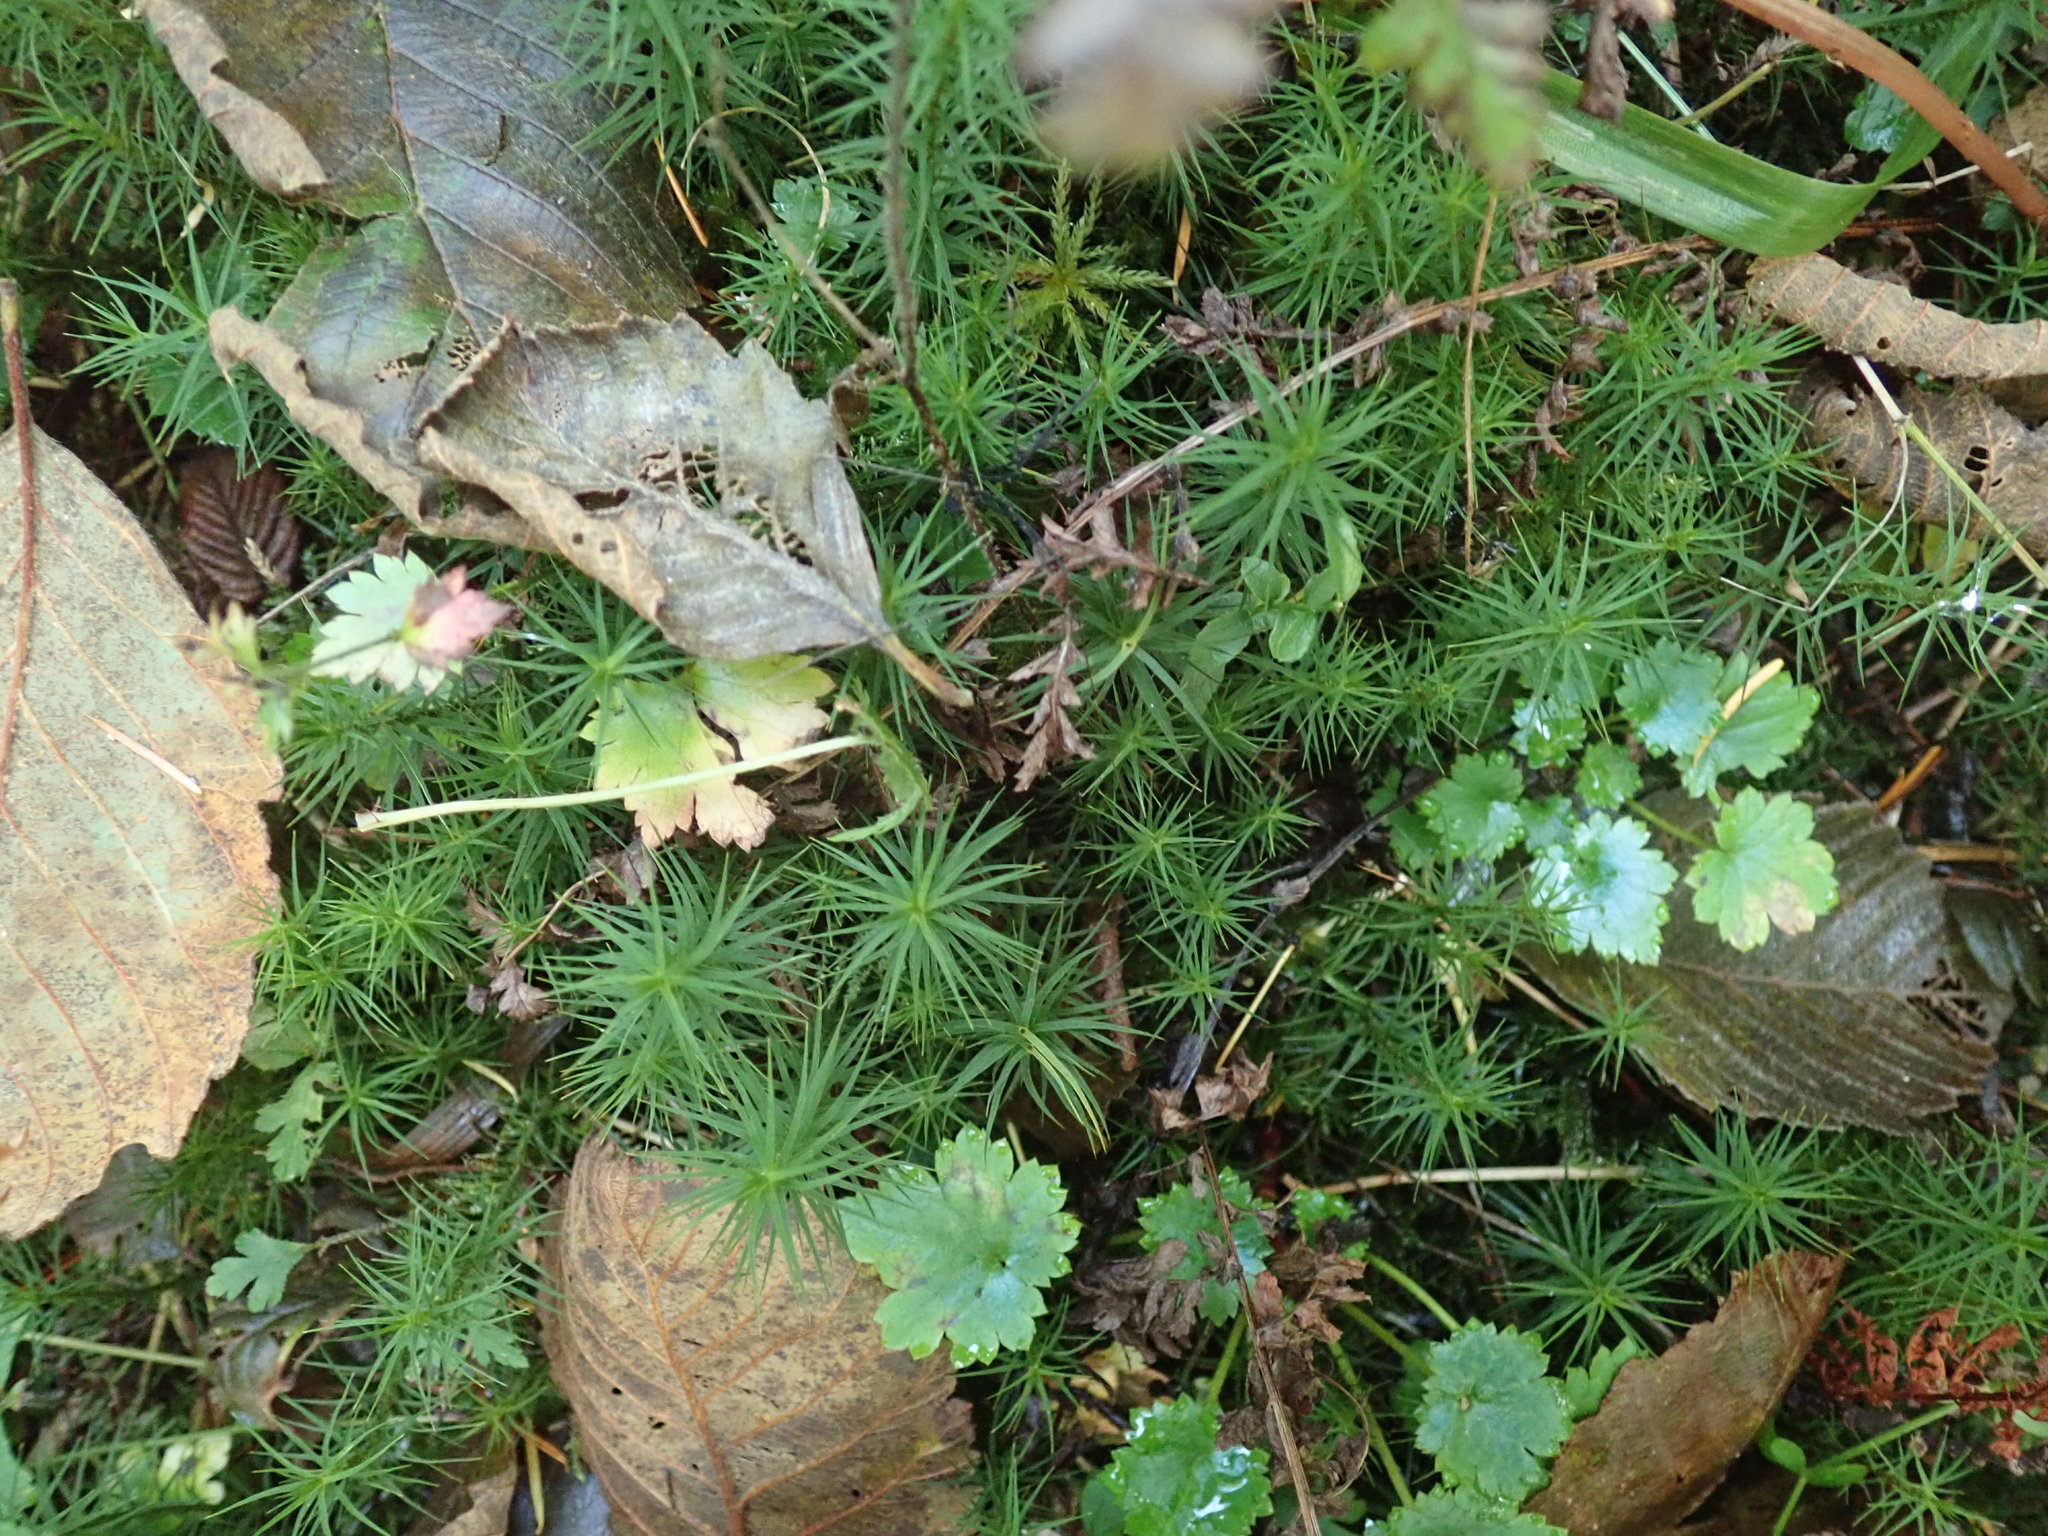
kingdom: Plantae
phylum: Bryophyta
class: Polytrichopsida
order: Polytrichales
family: Polytrichaceae
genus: Polytrichum
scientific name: Polytrichum commune
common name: Common haircap
